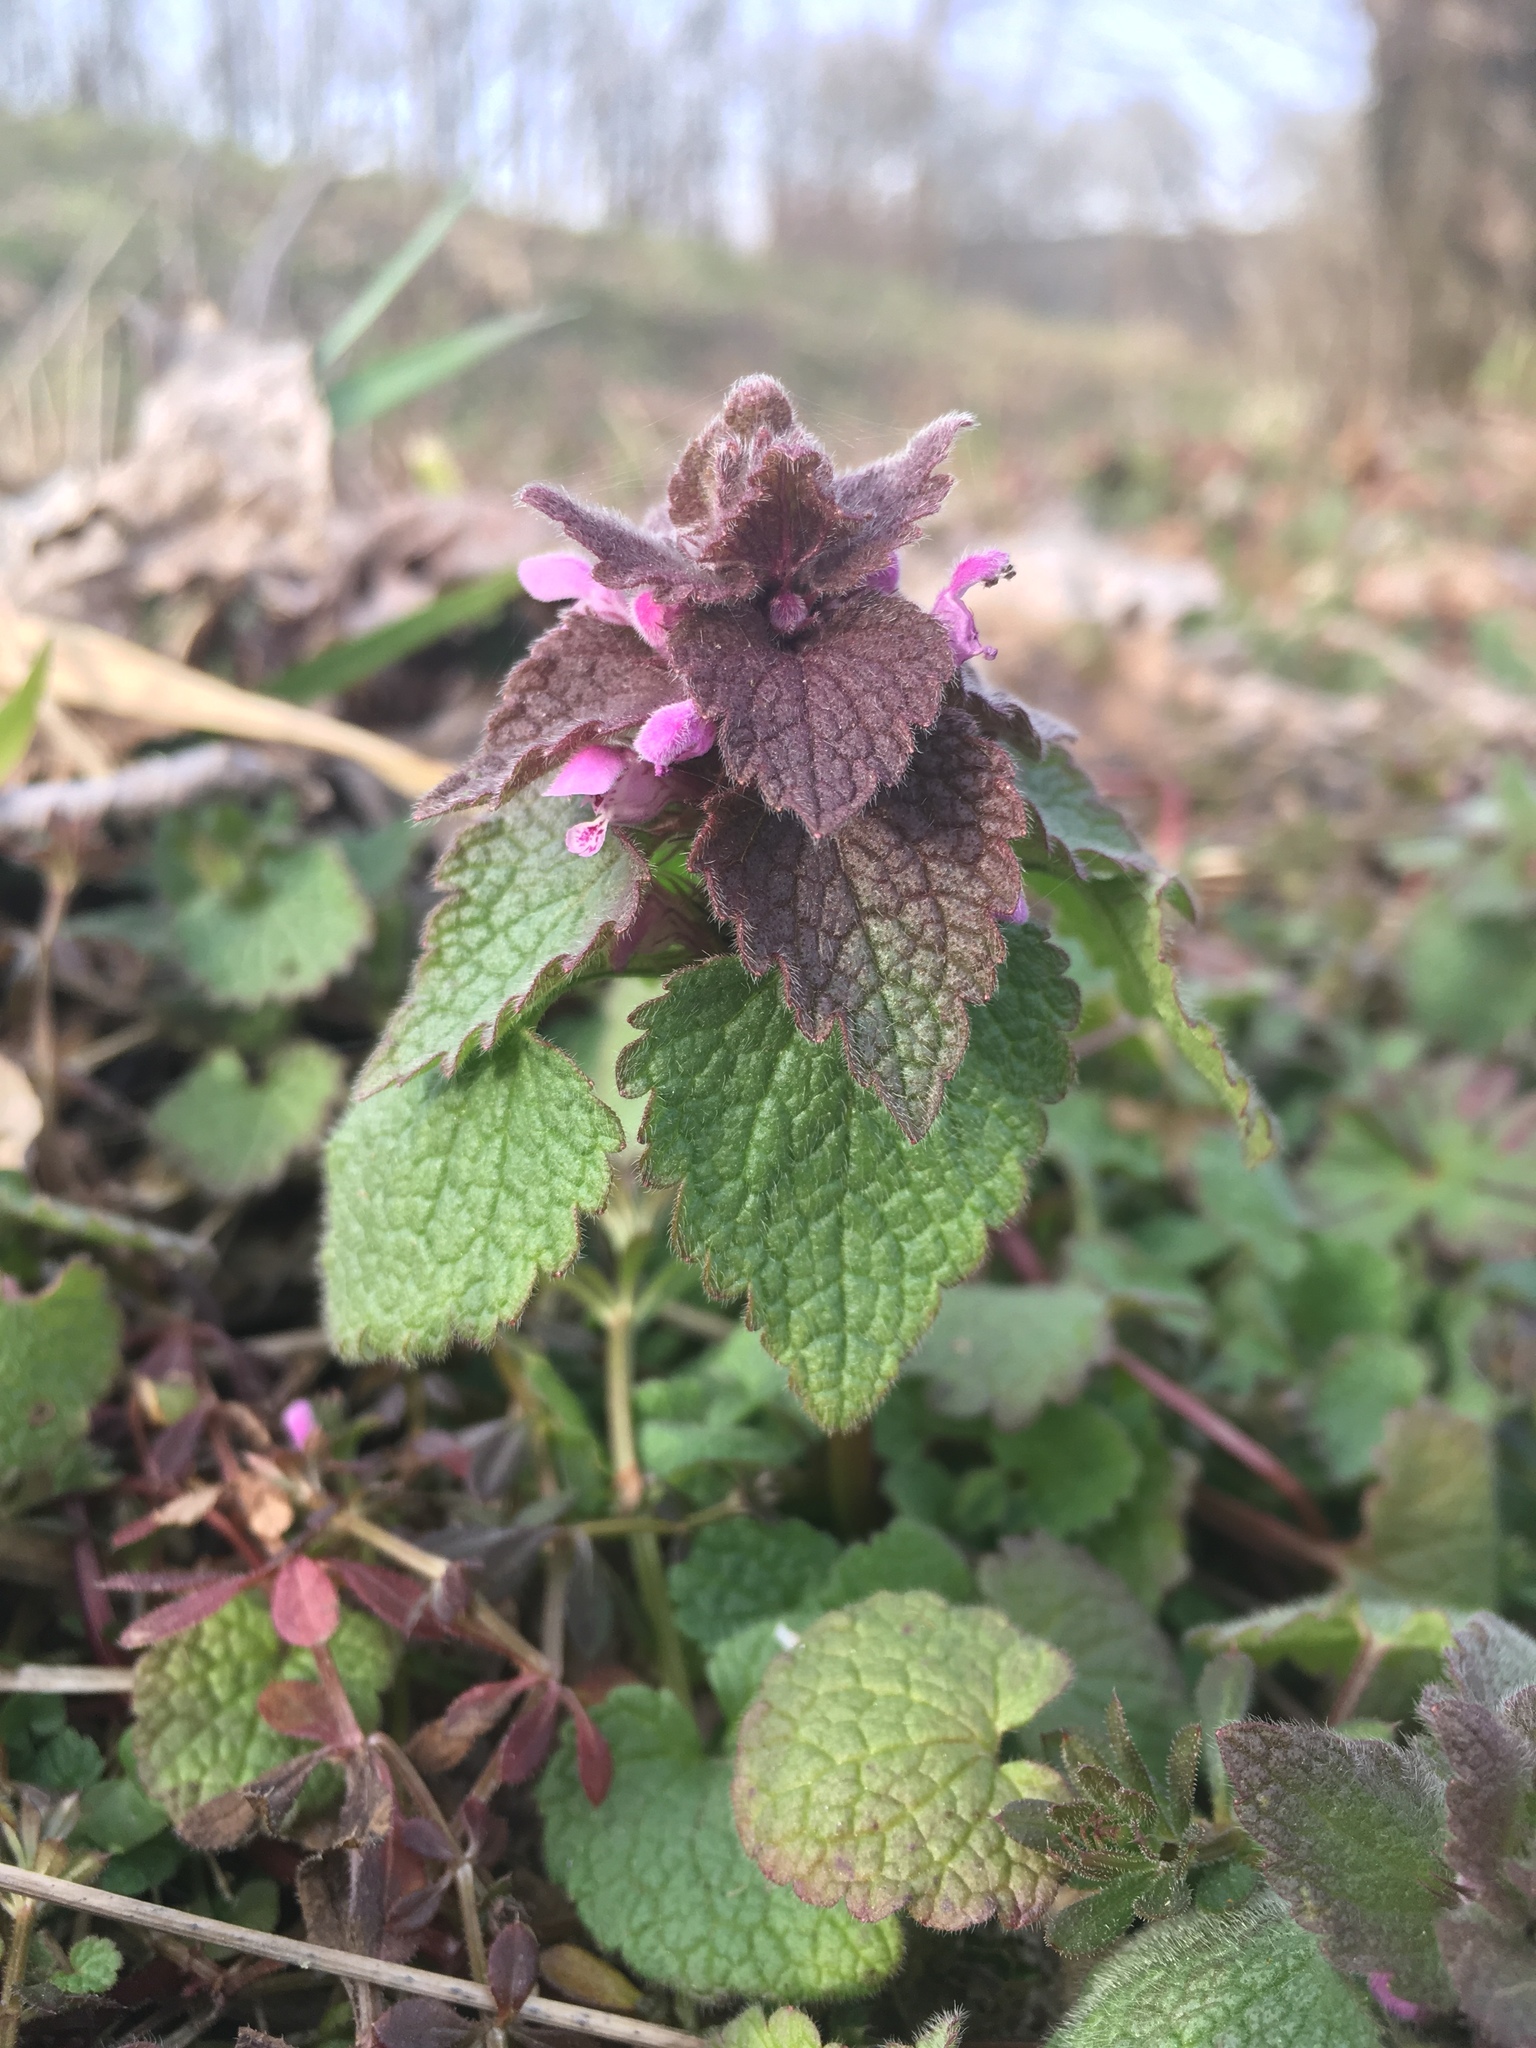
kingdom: Plantae
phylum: Tracheophyta
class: Magnoliopsida
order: Lamiales
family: Lamiaceae
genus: Lamium
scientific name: Lamium purpureum
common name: Red dead-nettle
